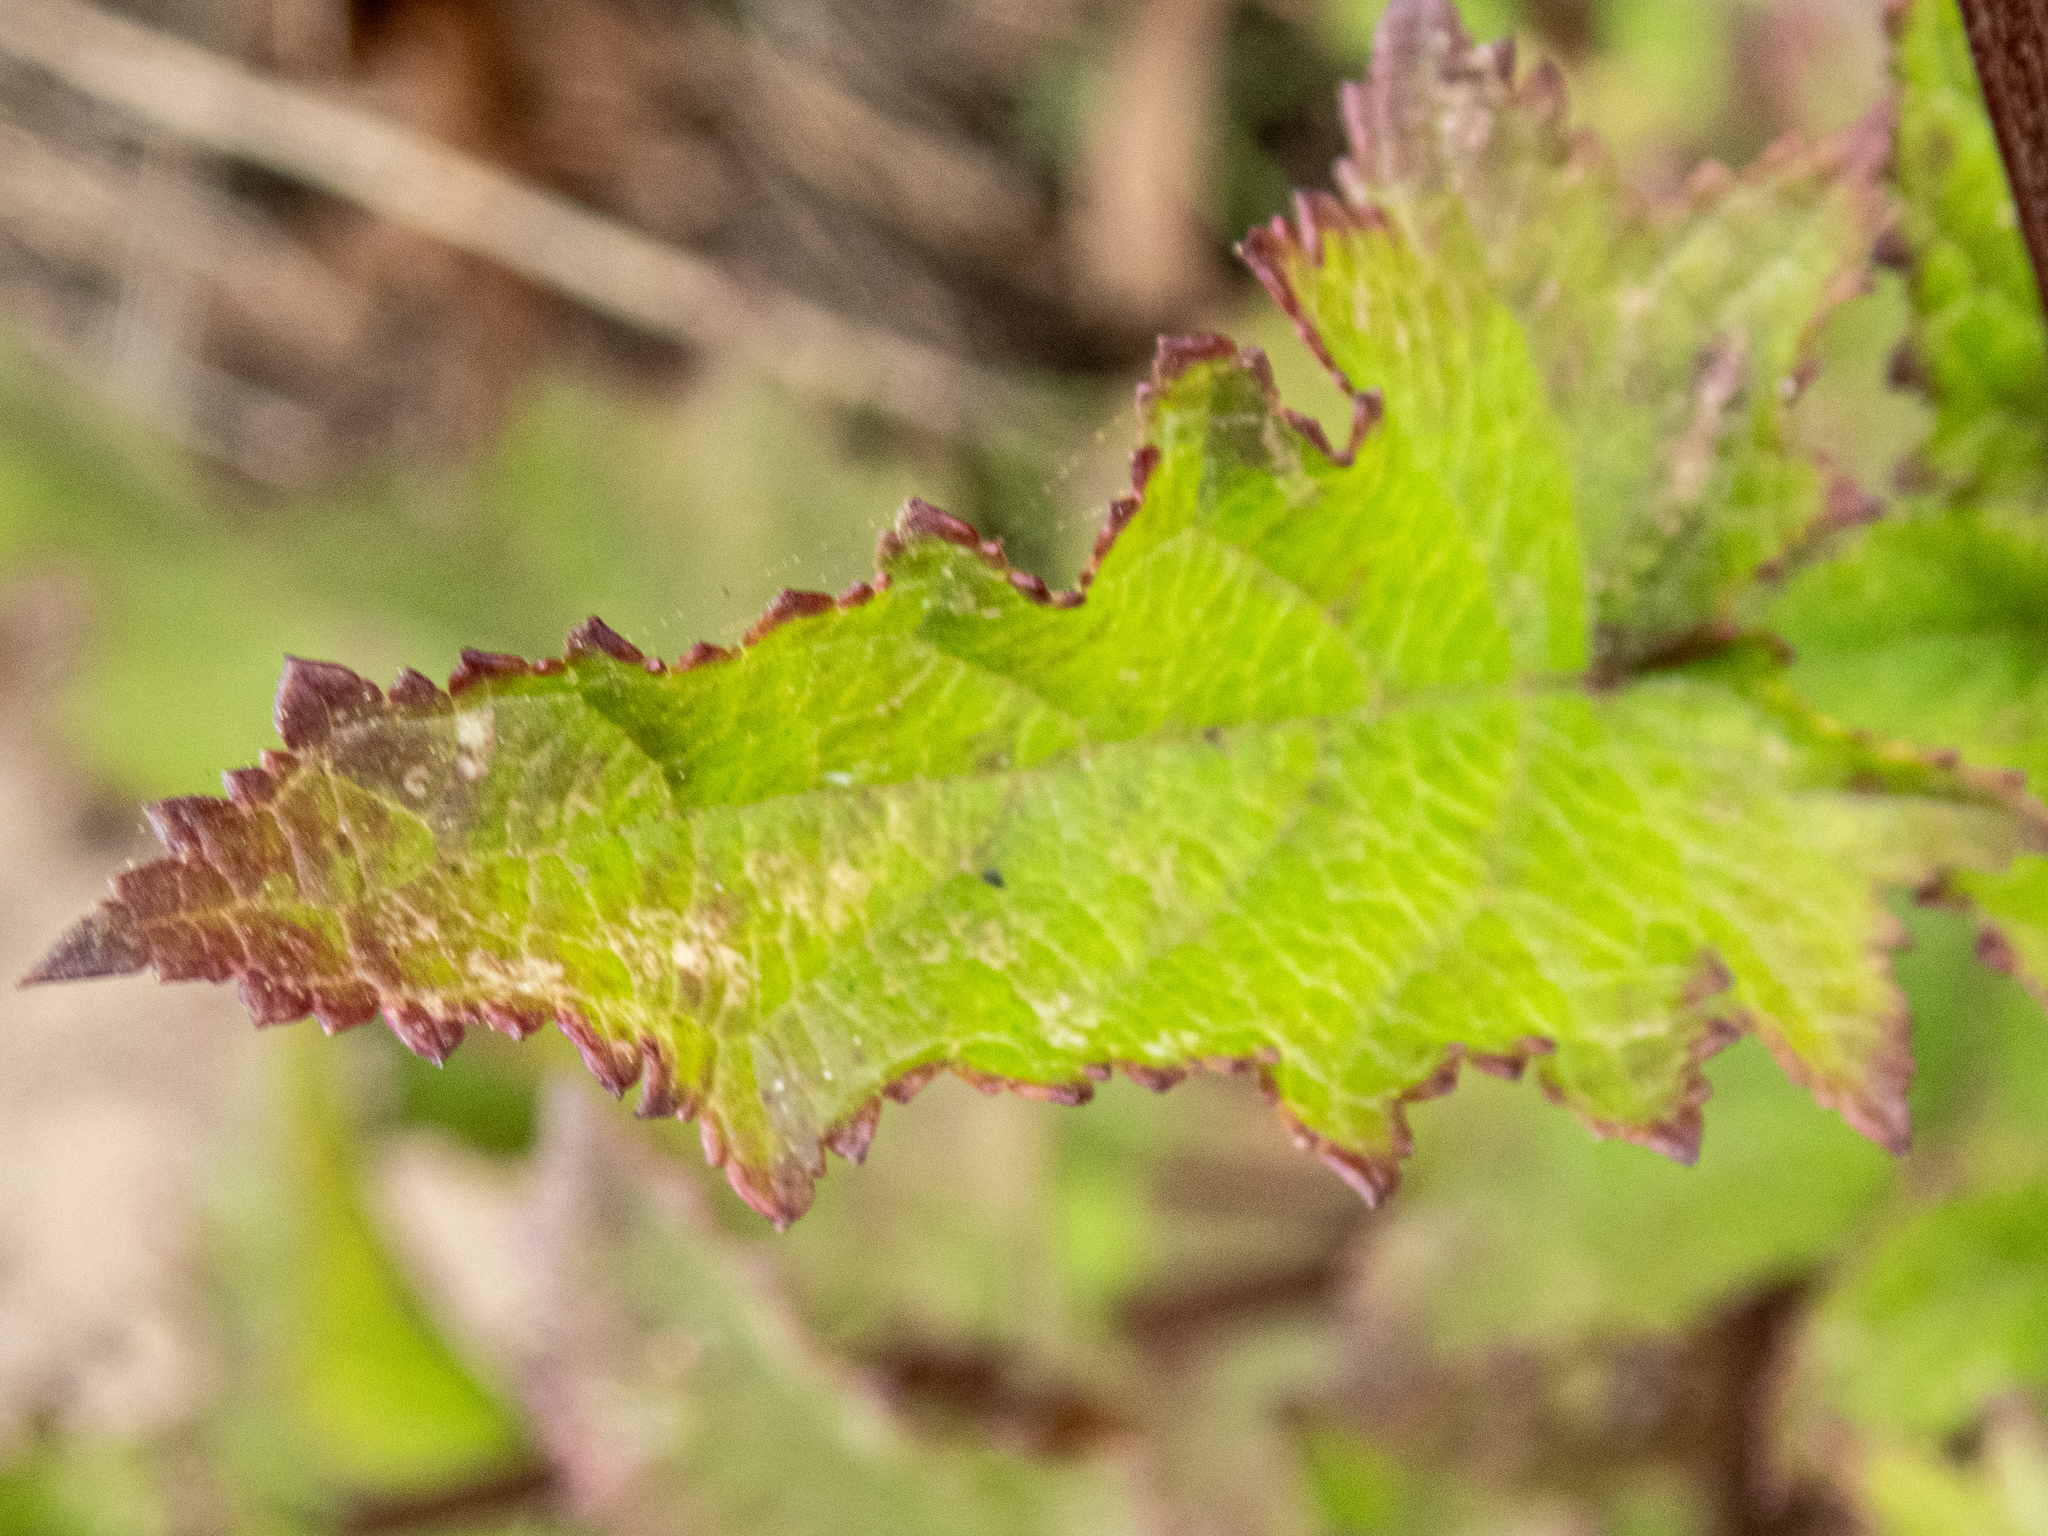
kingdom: Plantae
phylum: Tracheophyta
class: Magnoliopsida
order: Lamiales
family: Scrophulariaceae
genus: Scrophularia
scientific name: Scrophularia californica
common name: California figwort
